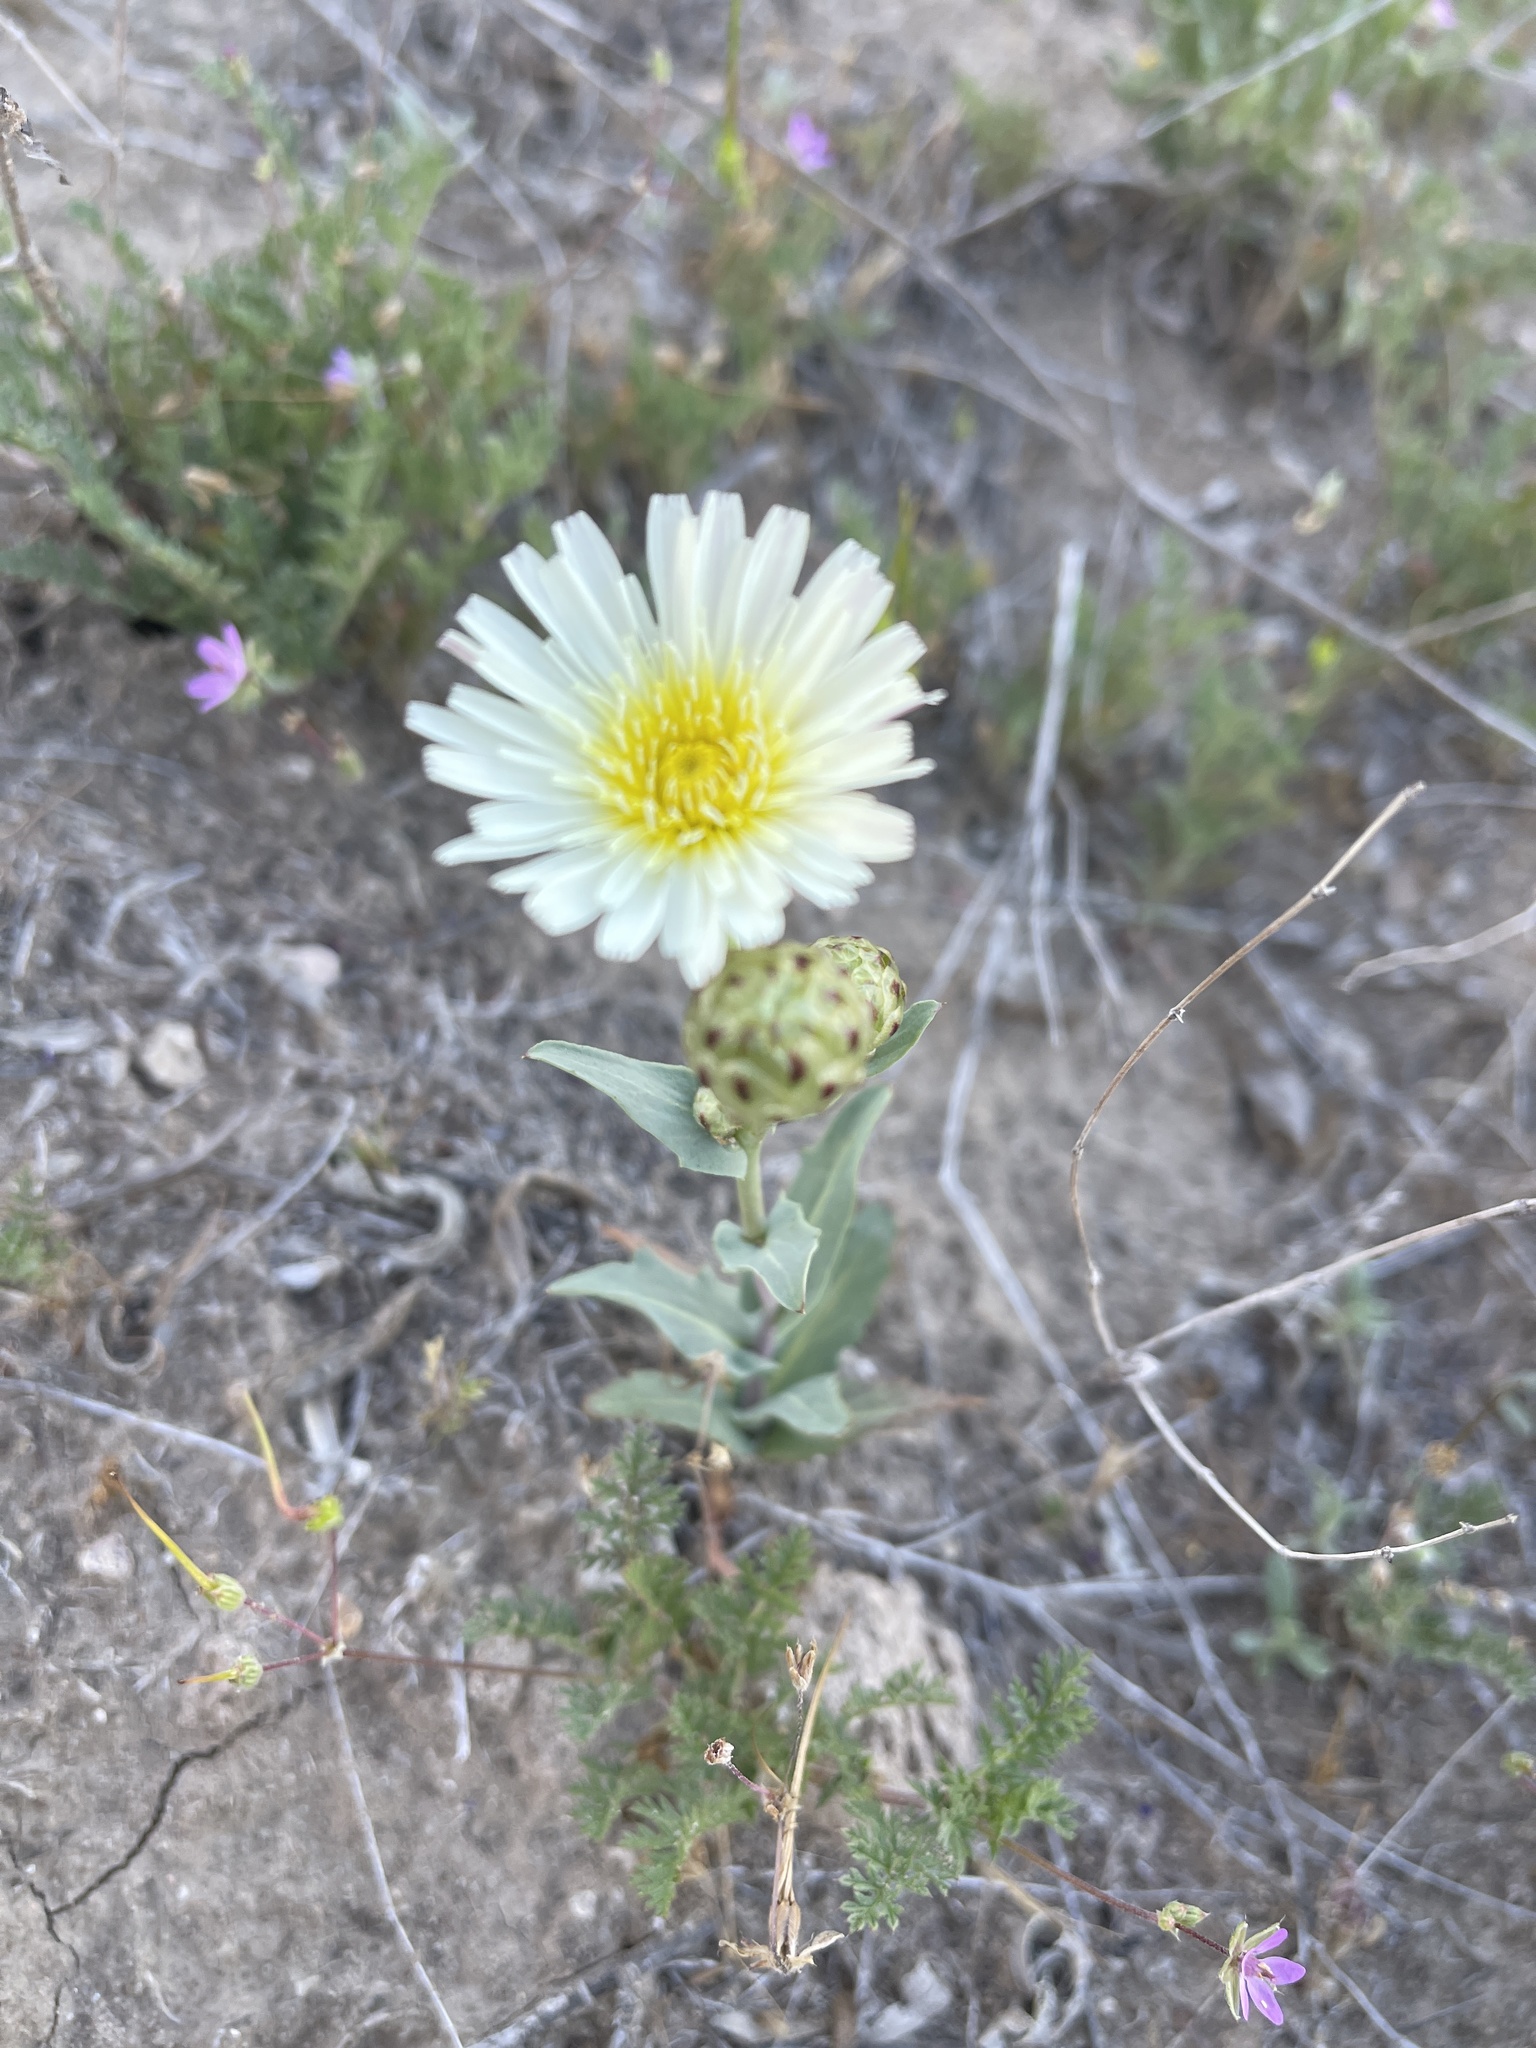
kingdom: Plantae
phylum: Tracheophyta
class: Magnoliopsida
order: Asterales
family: Asteraceae
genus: Malacothrix
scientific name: Malacothrix coulteri
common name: Snake's-head
